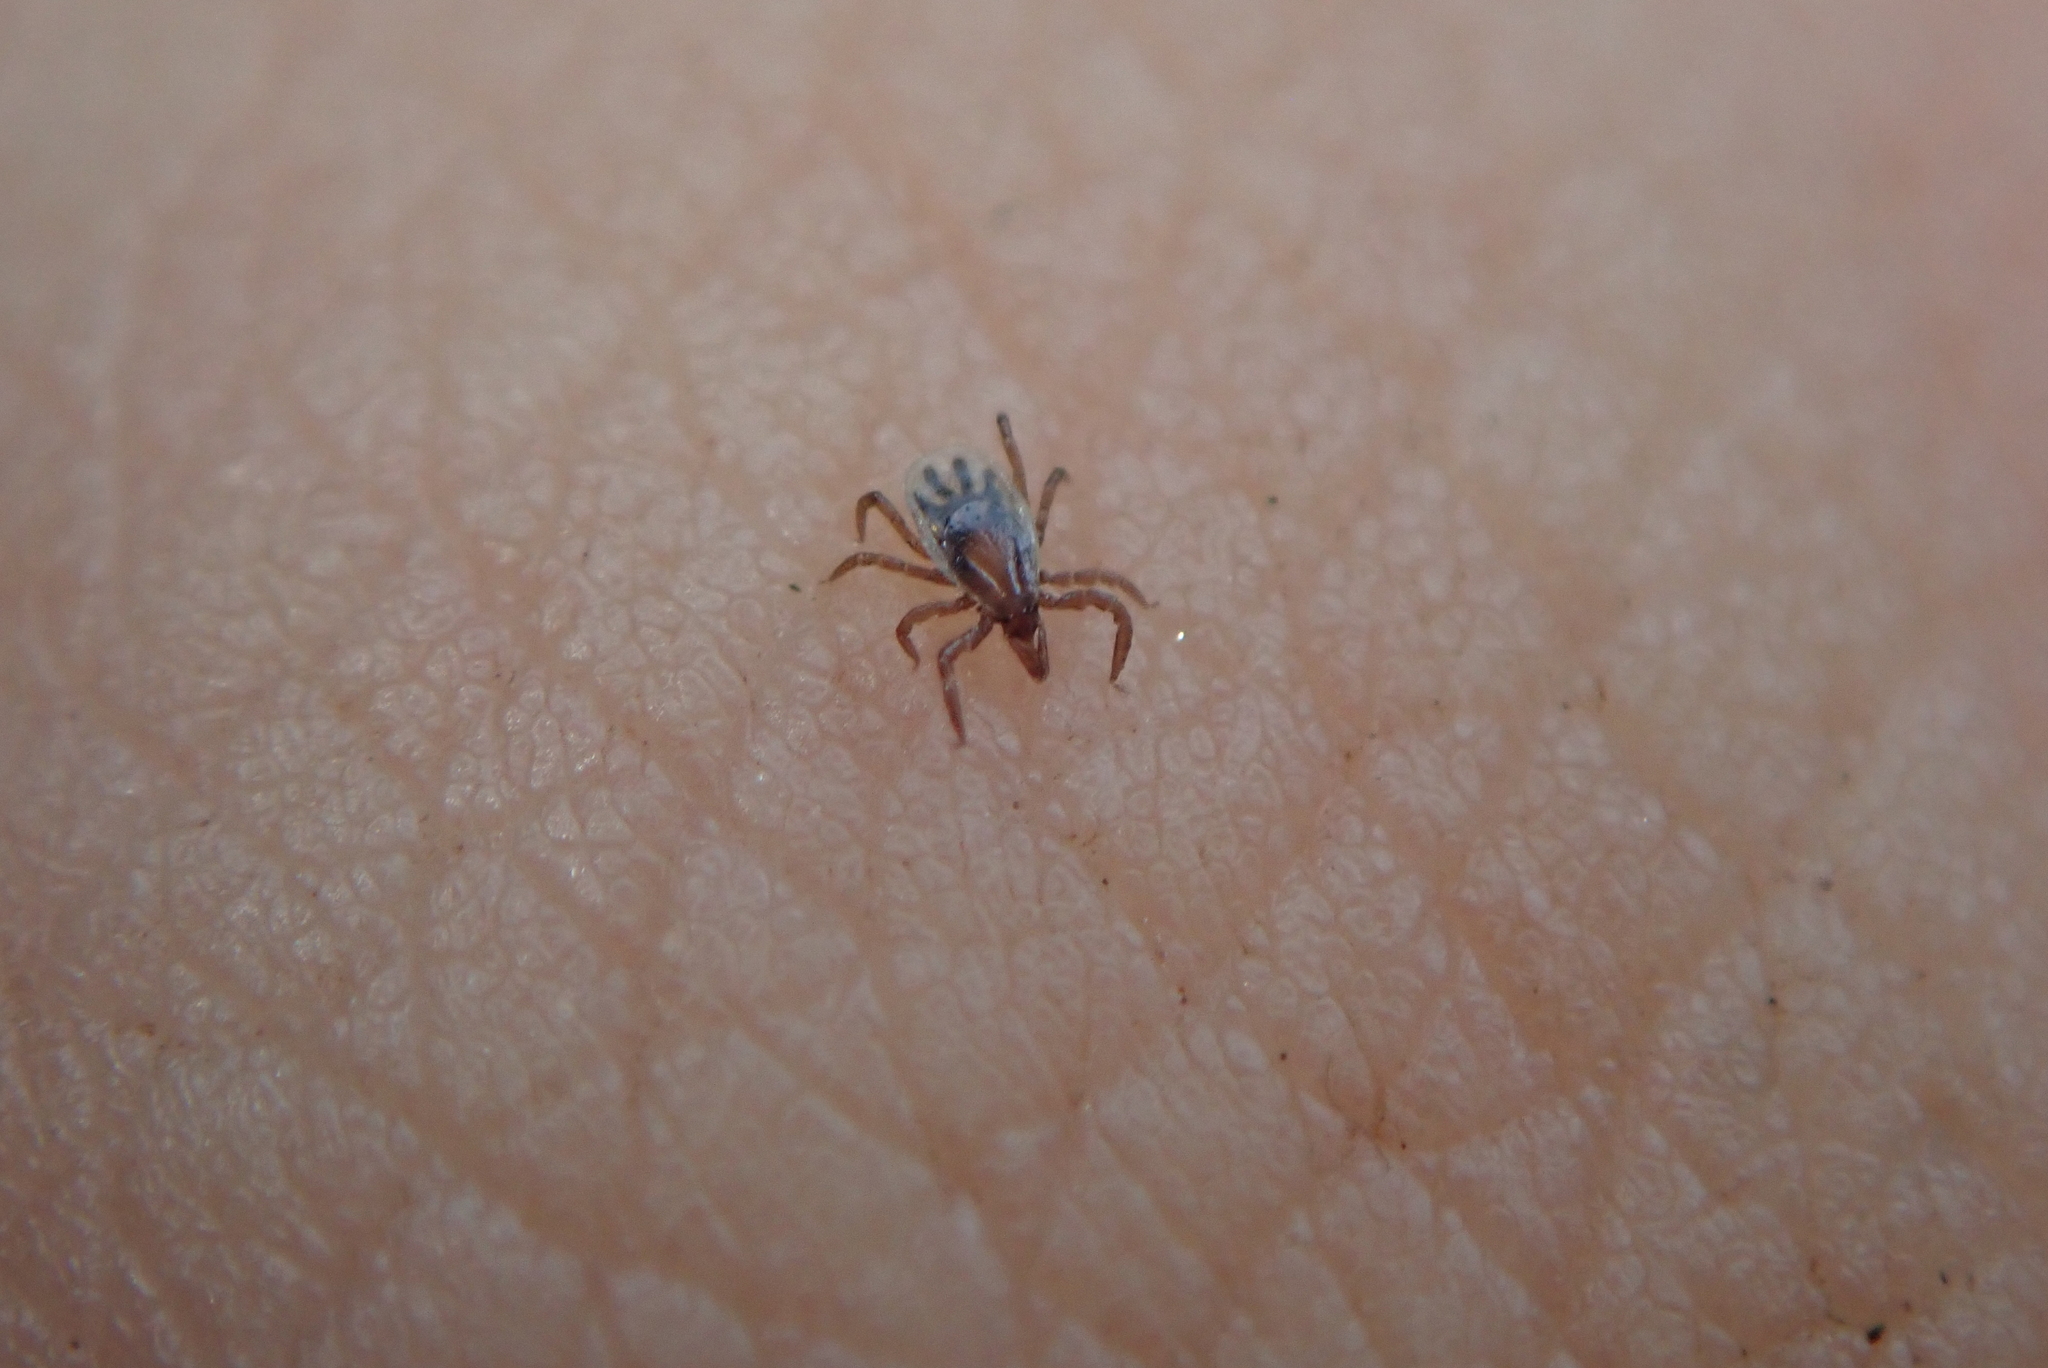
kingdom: Animalia
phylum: Arthropoda
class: Arachnida
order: Ixodida
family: Ixodidae
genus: Ixodes
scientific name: Ixodes scapularis
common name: Black legged tick
